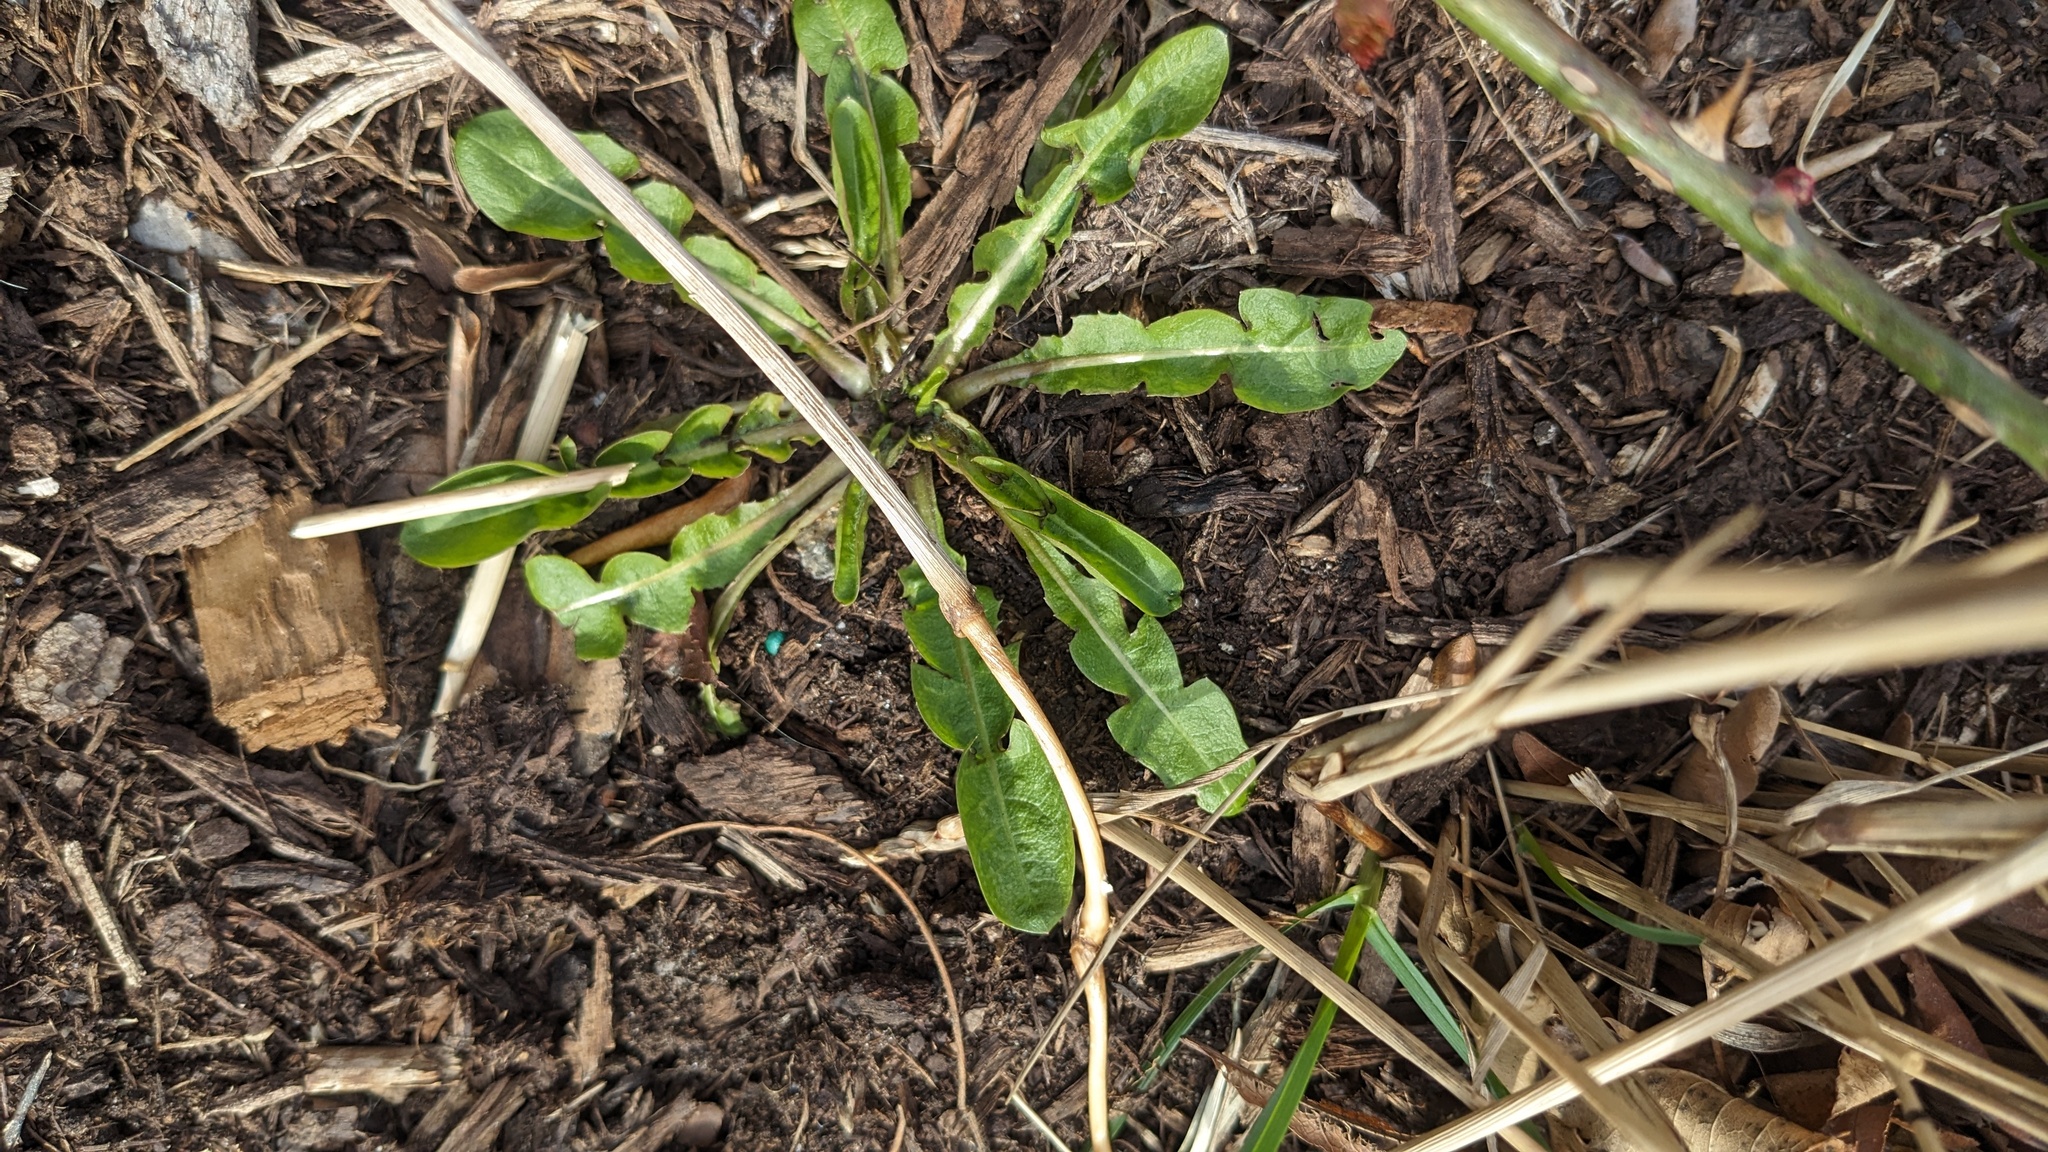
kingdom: Plantae
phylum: Tracheophyta
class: Magnoliopsida
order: Asterales
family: Asteraceae
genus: Taraxacum
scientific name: Taraxacum
